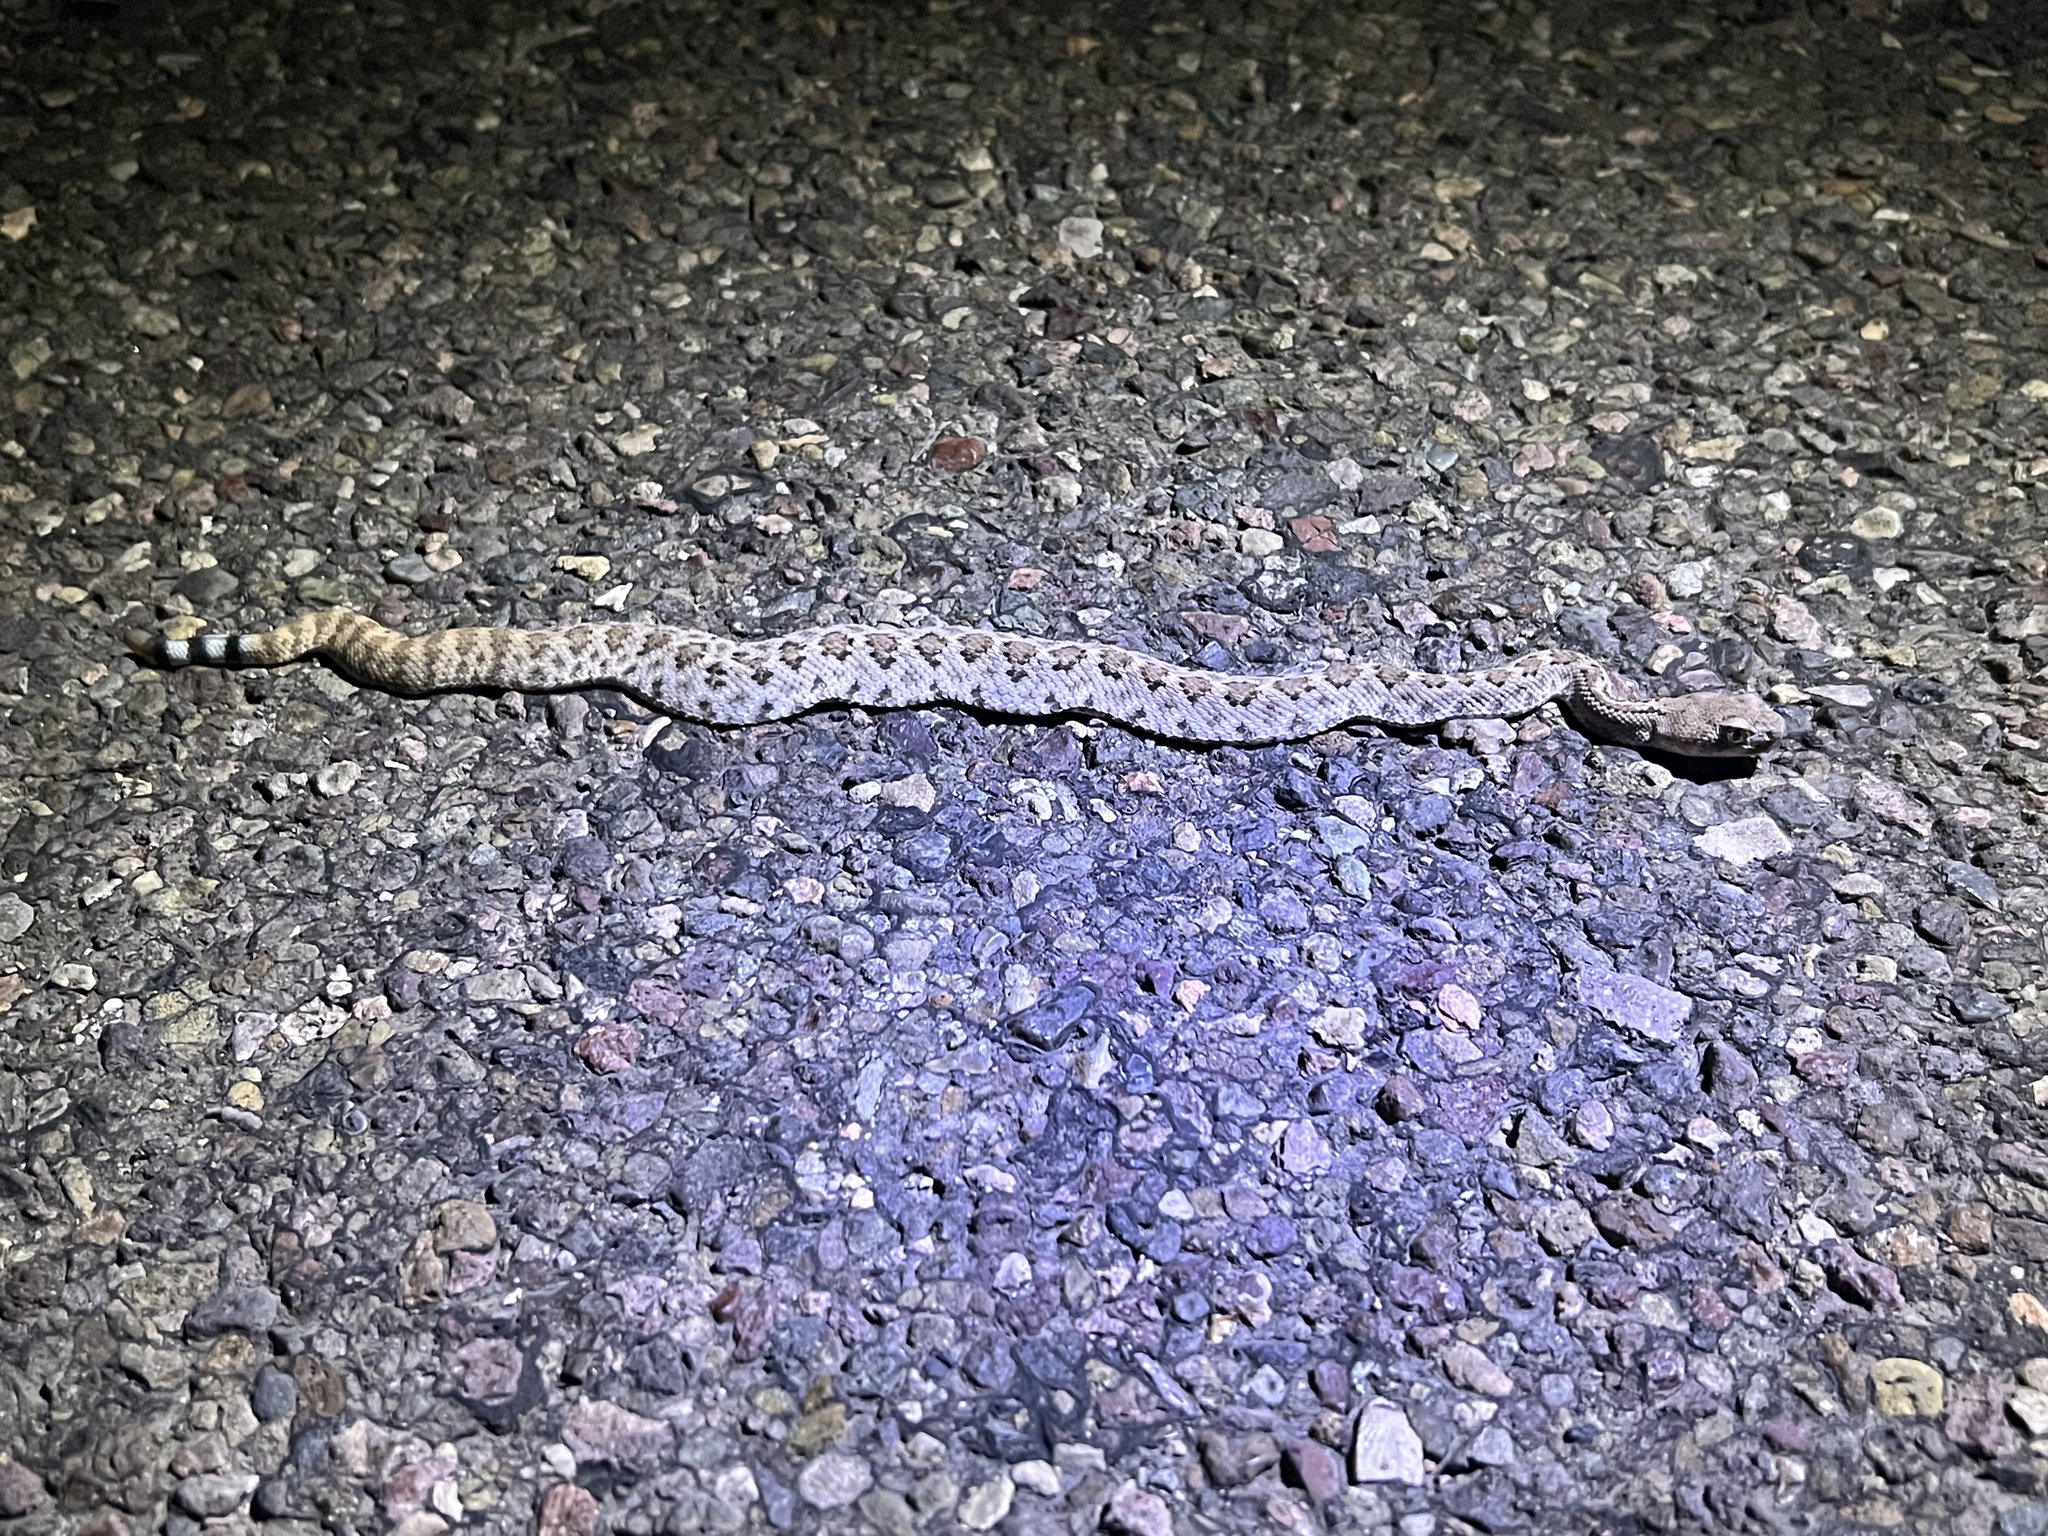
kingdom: Animalia
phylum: Chordata
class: Squamata
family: Viperidae
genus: Crotalus
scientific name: Crotalus atrox
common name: Western diamond-backed rattlesnake
